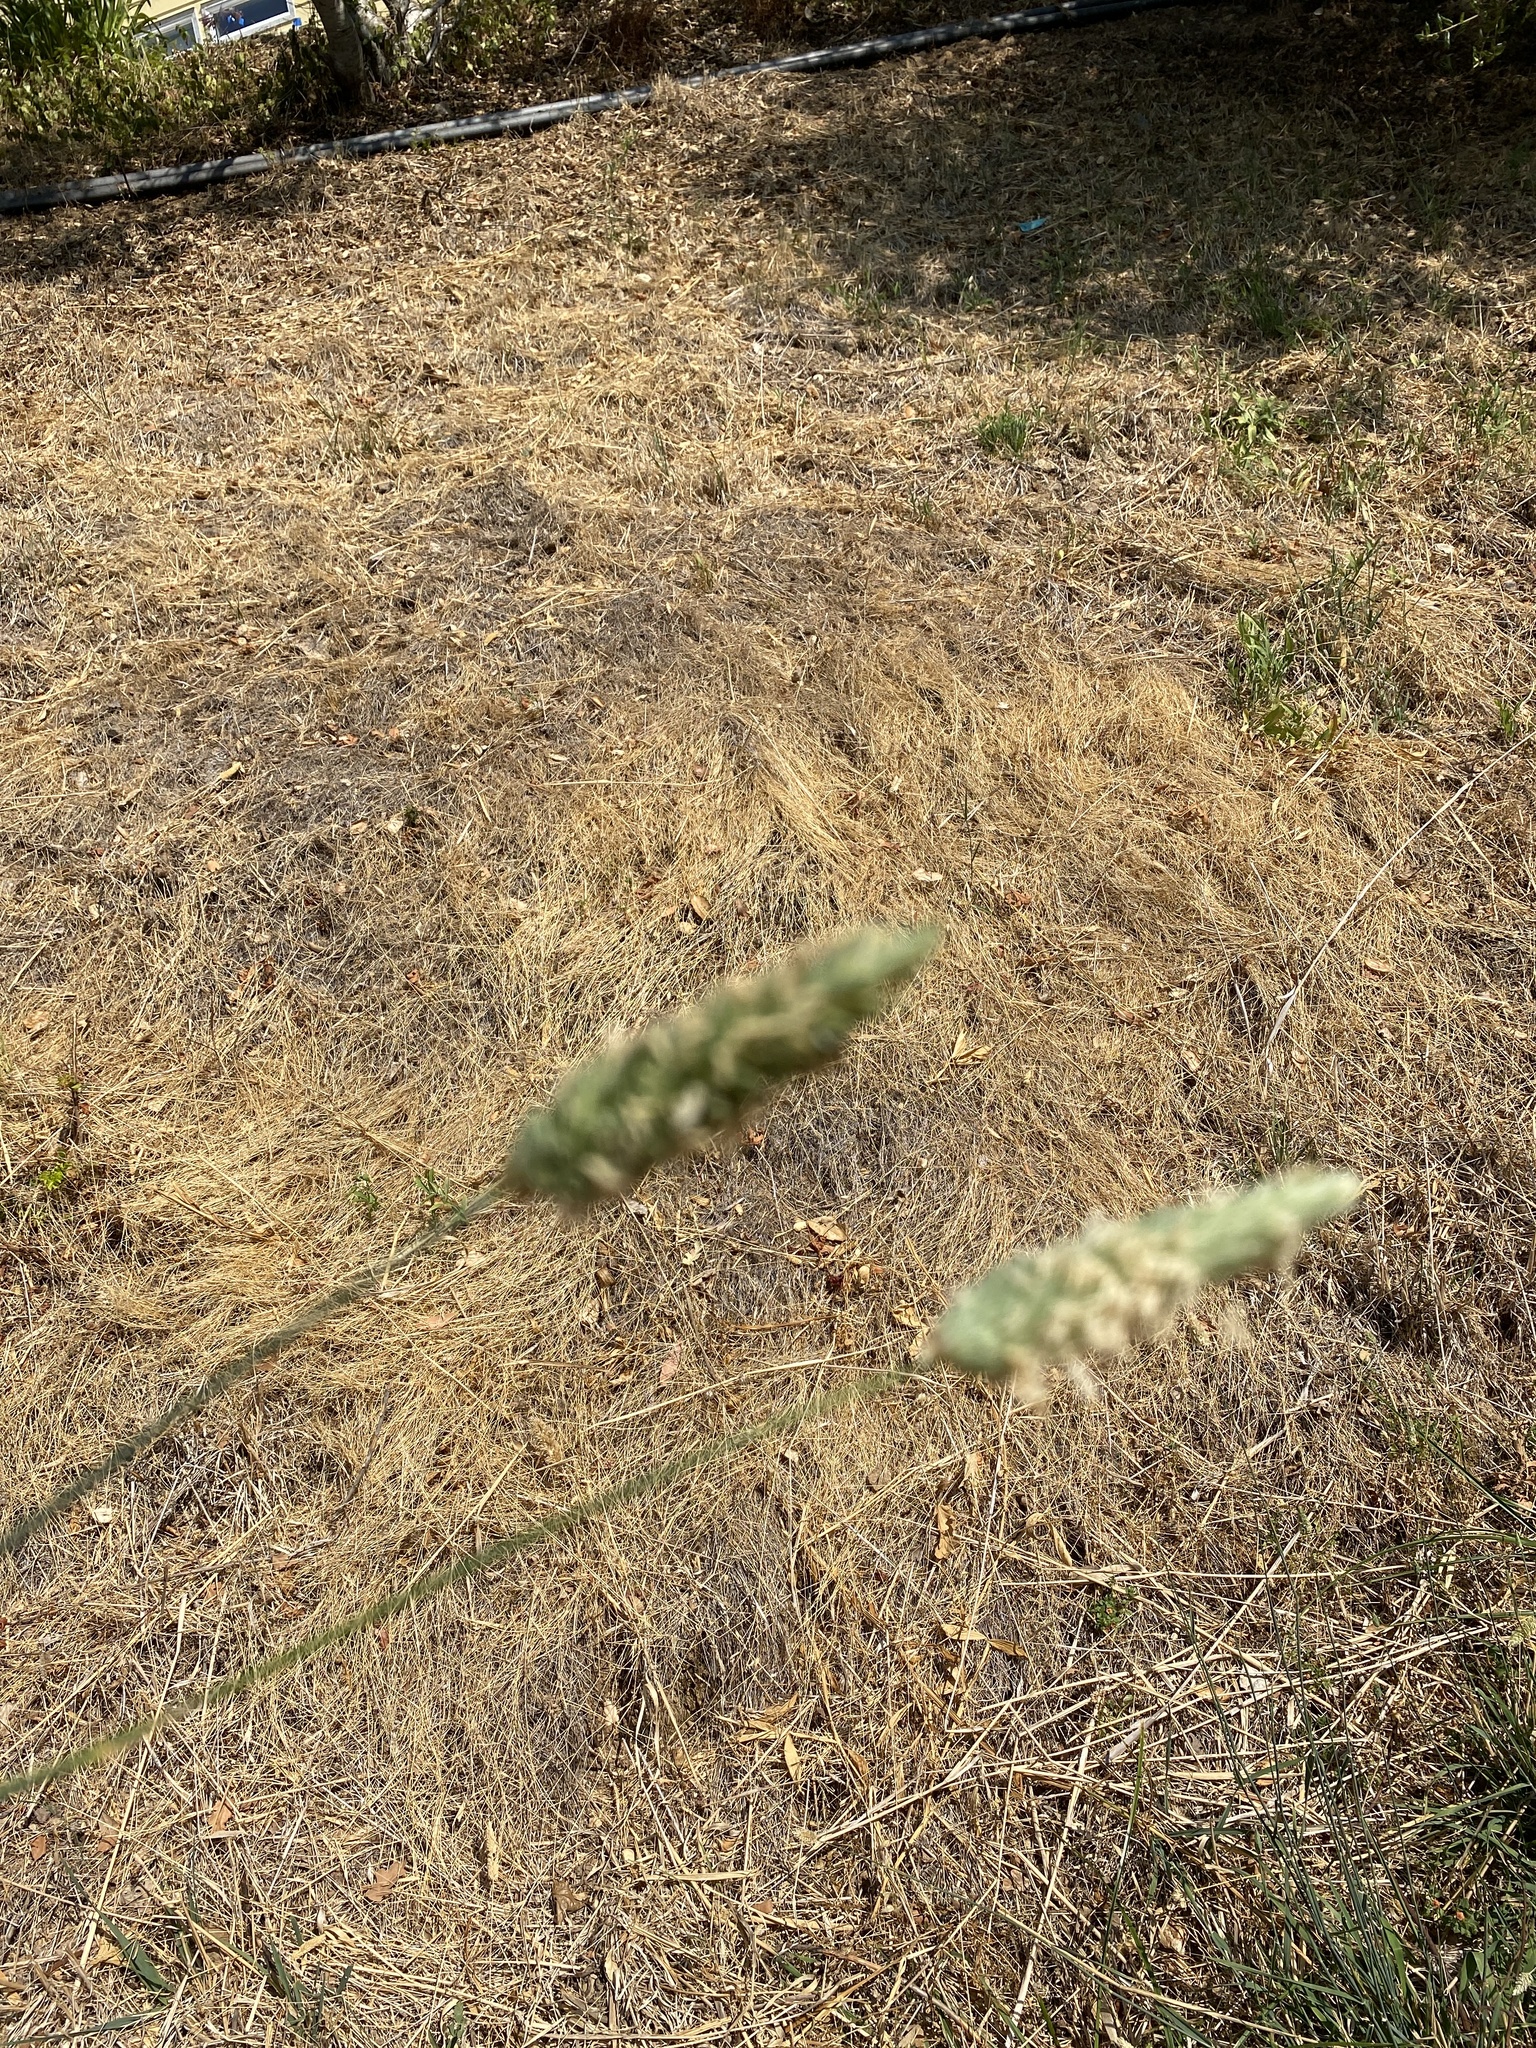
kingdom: Plantae
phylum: Tracheophyta
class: Liliopsida
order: Poales
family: Poaceae
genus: Phalaris
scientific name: Phalaris aquatica
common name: Bulbous canary-grass
